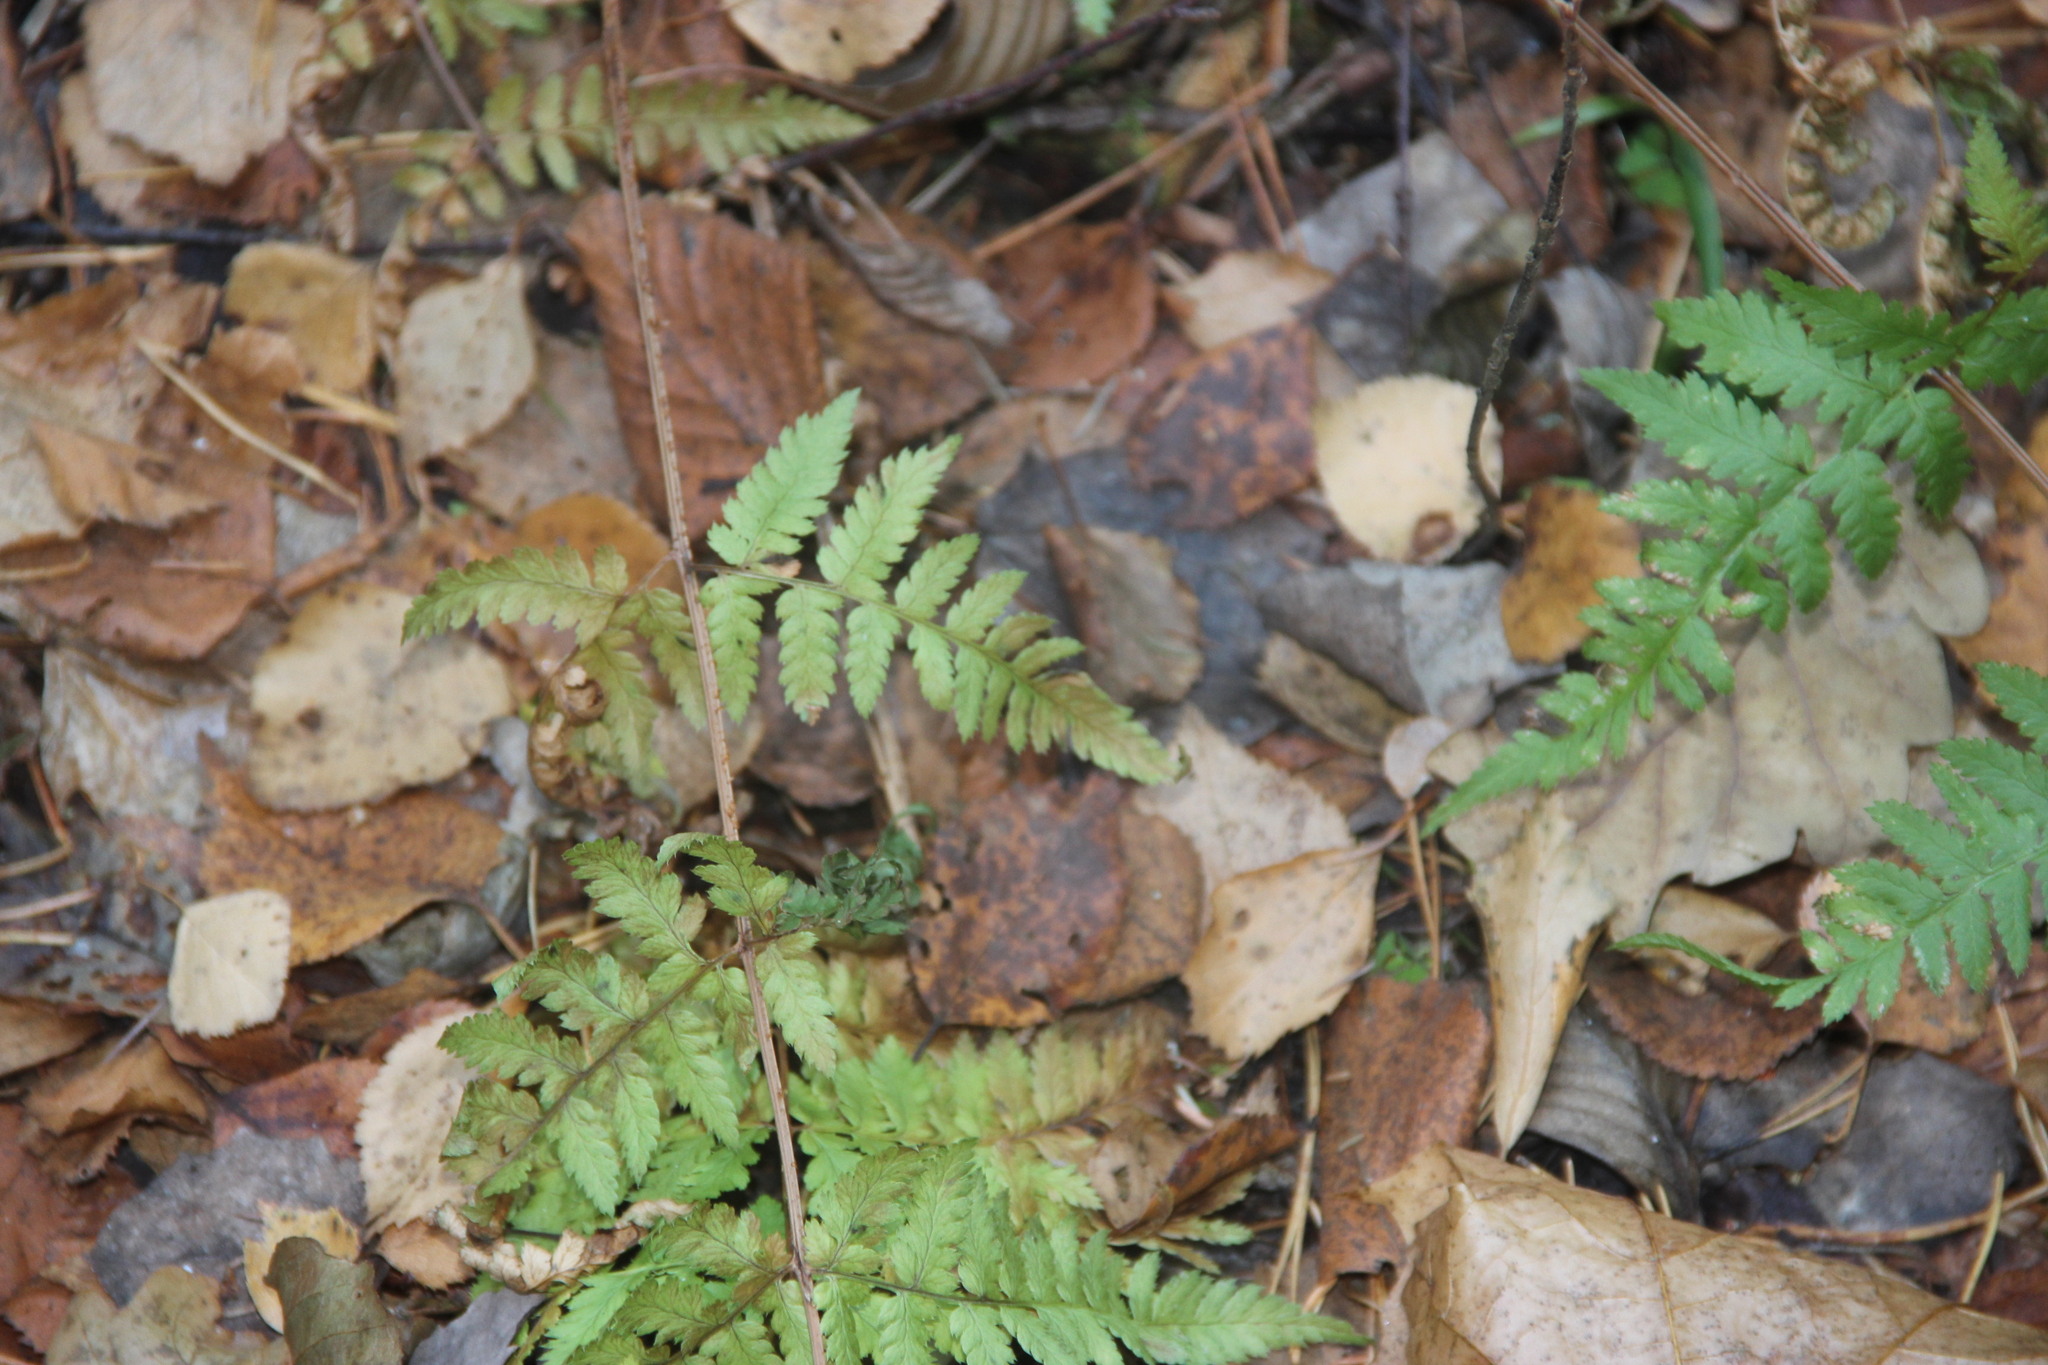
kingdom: Plantae
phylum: Tracheophyta
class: Polypodiopsida
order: Polypodiales
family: Dryopteridaceae
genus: Dryopteris
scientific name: Dryopteris carthusiana
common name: Narrow buckler-fern
